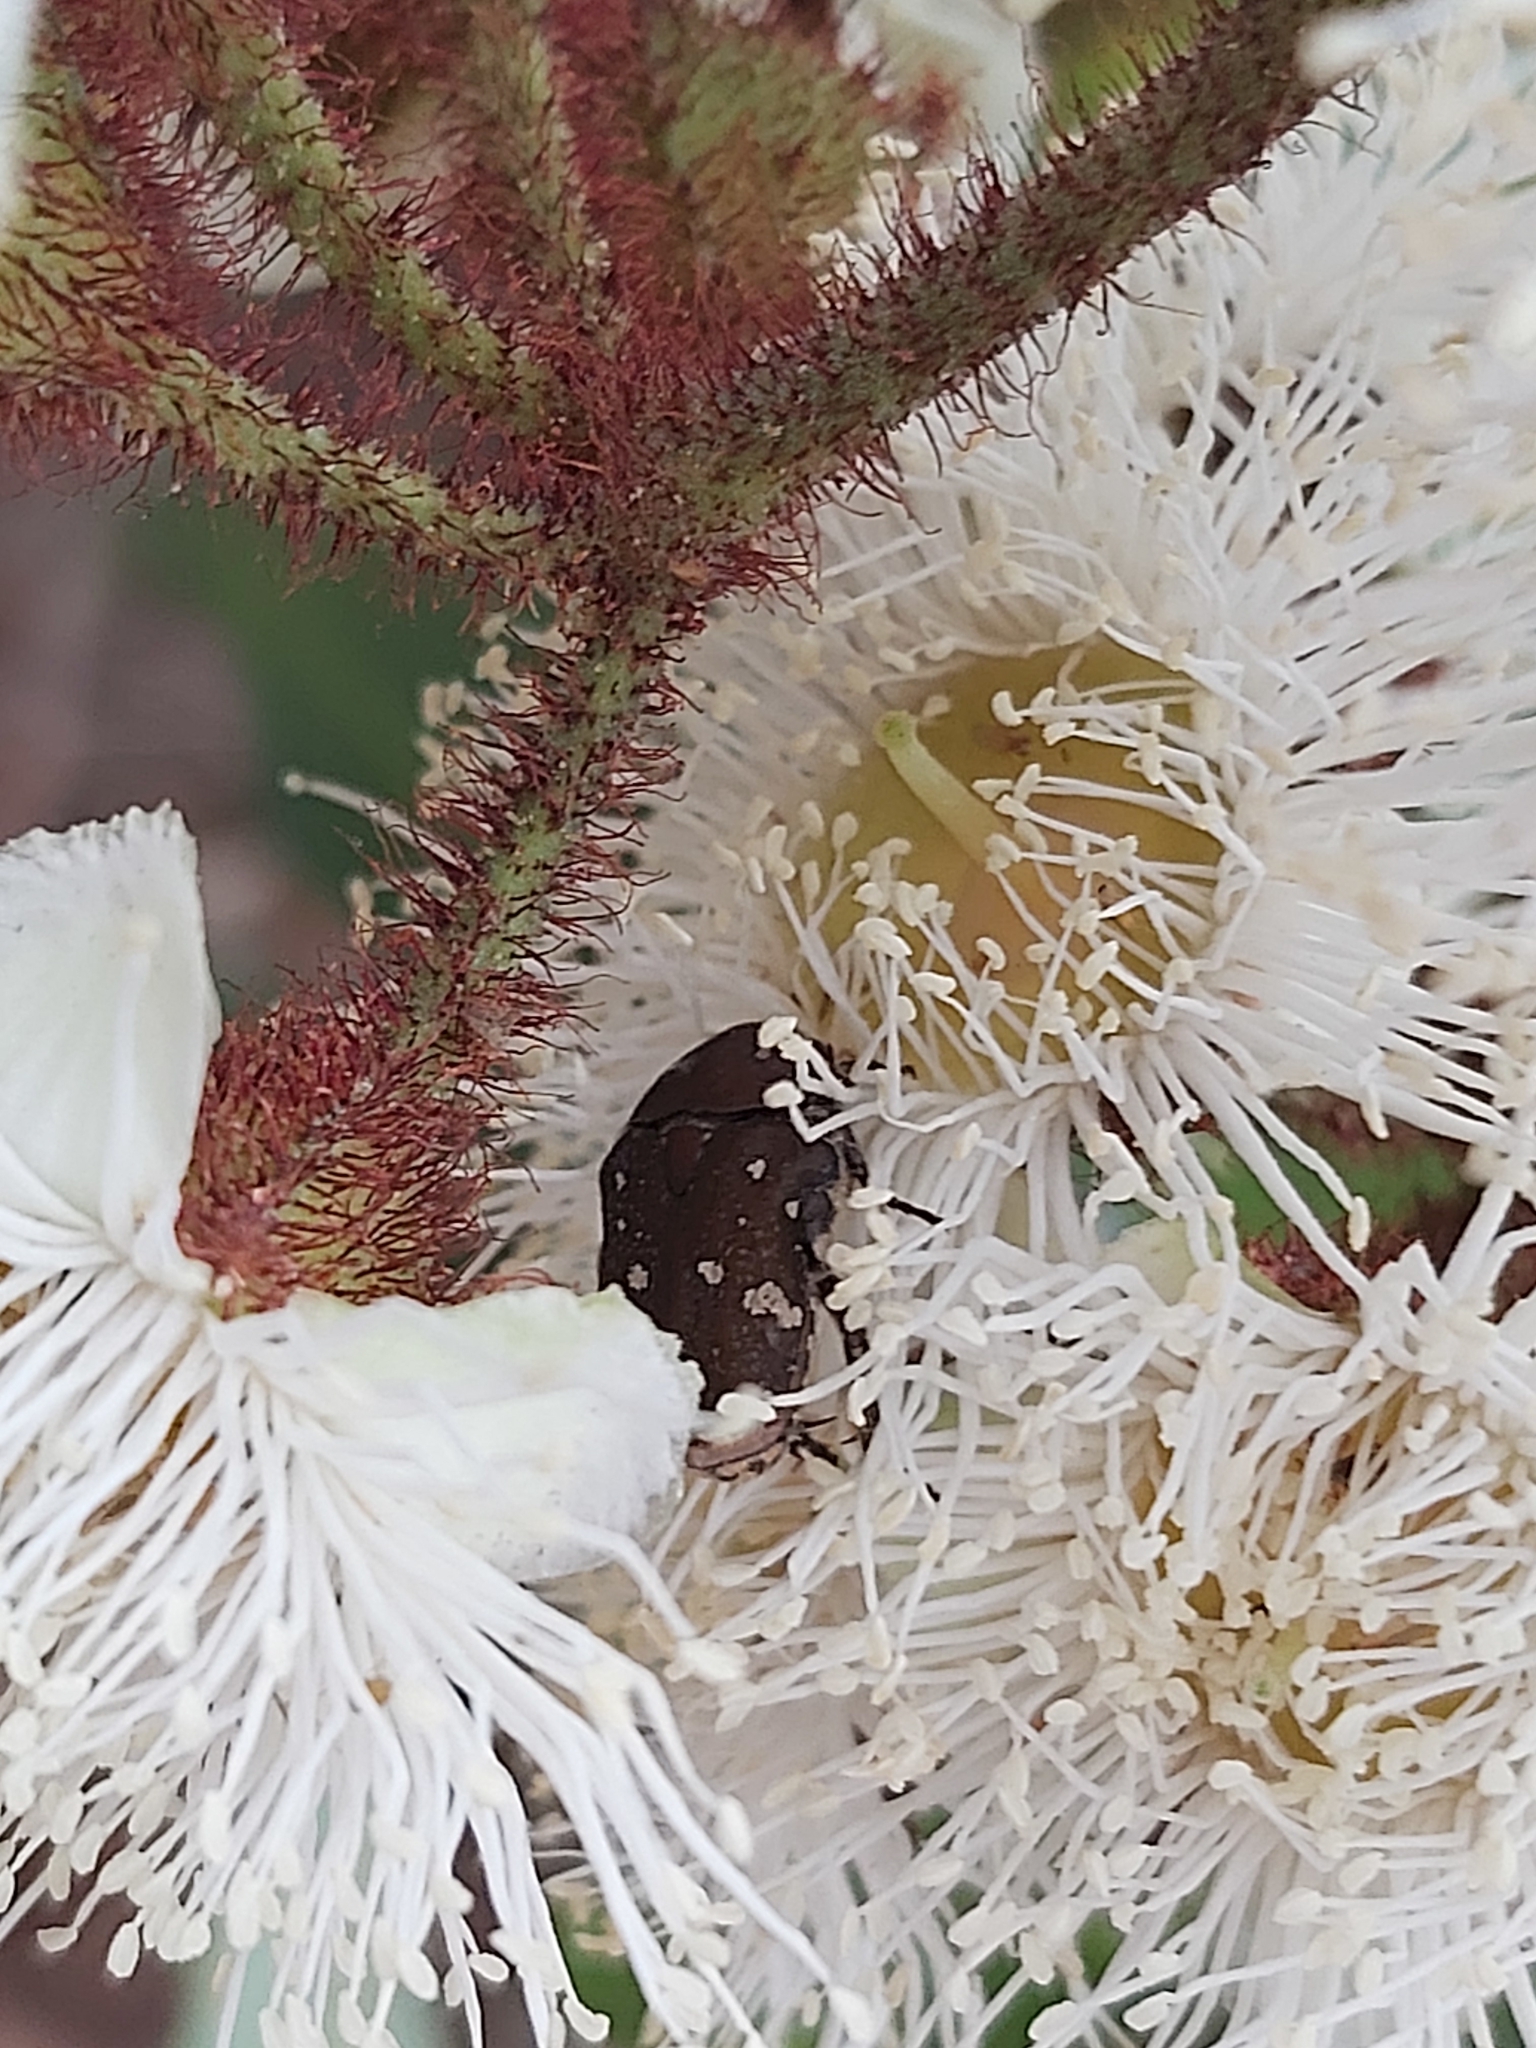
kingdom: Animalia
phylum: Arthropoda
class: Insecta
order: Coleoptera
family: Scarabaeidae
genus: Glycyphana
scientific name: Glycyphana stolata
